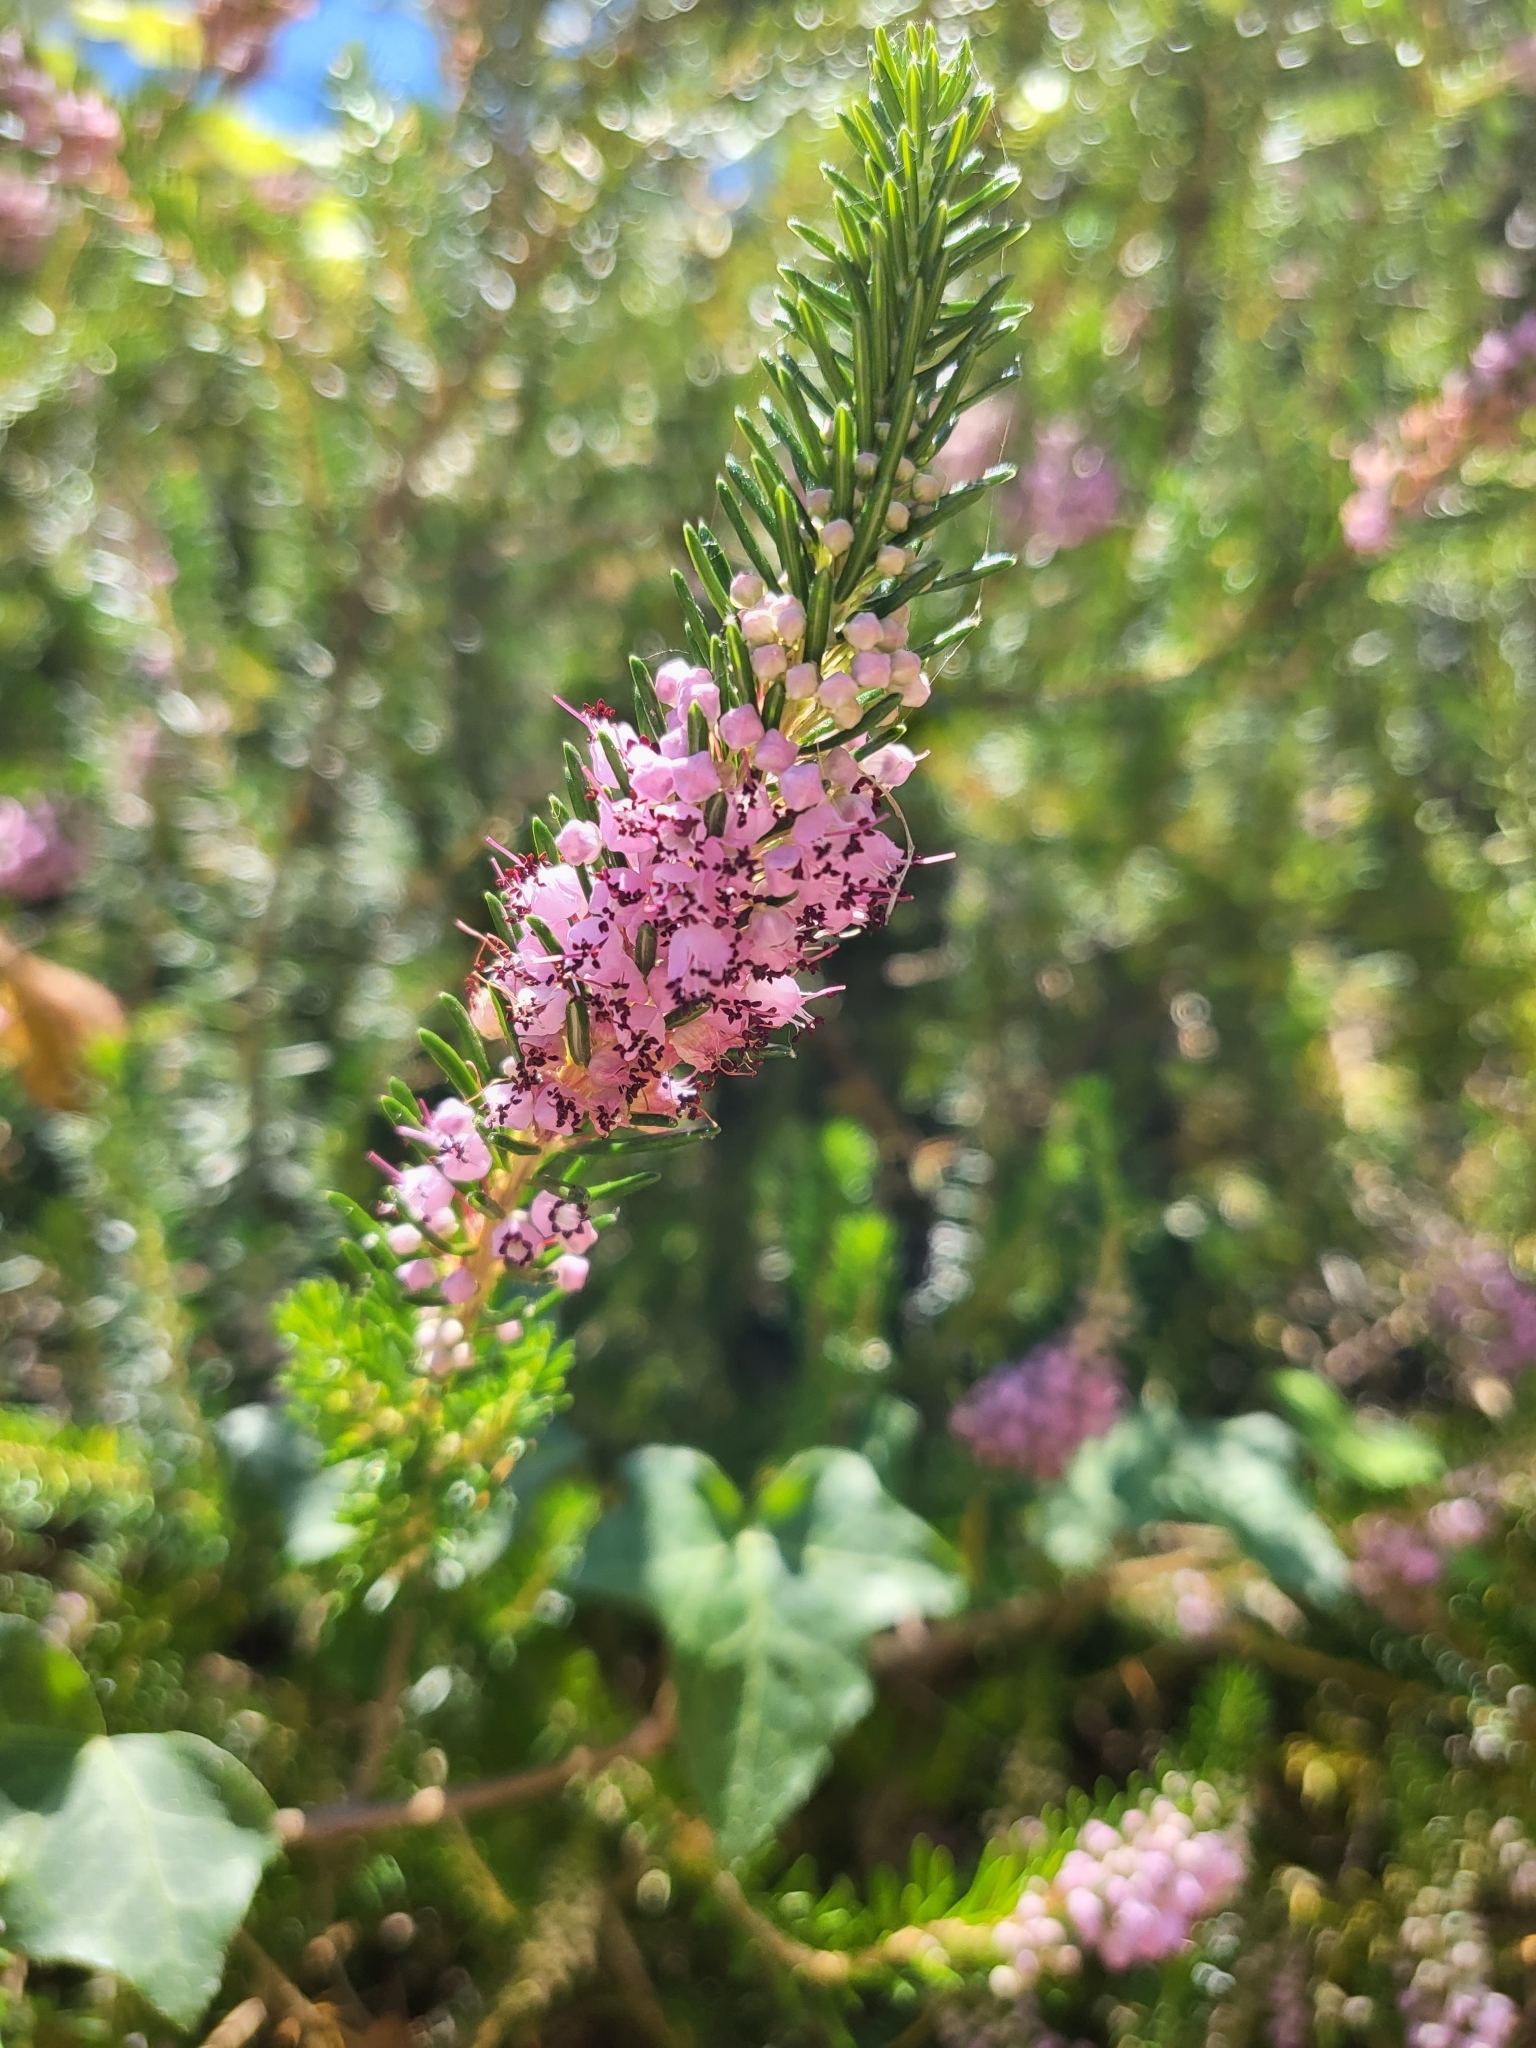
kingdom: Plantae
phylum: Tracheophyta
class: Magnoliopsida
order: Ericales
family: Ericaceae
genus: Erica
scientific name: Erica vagans
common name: Cornish heath
